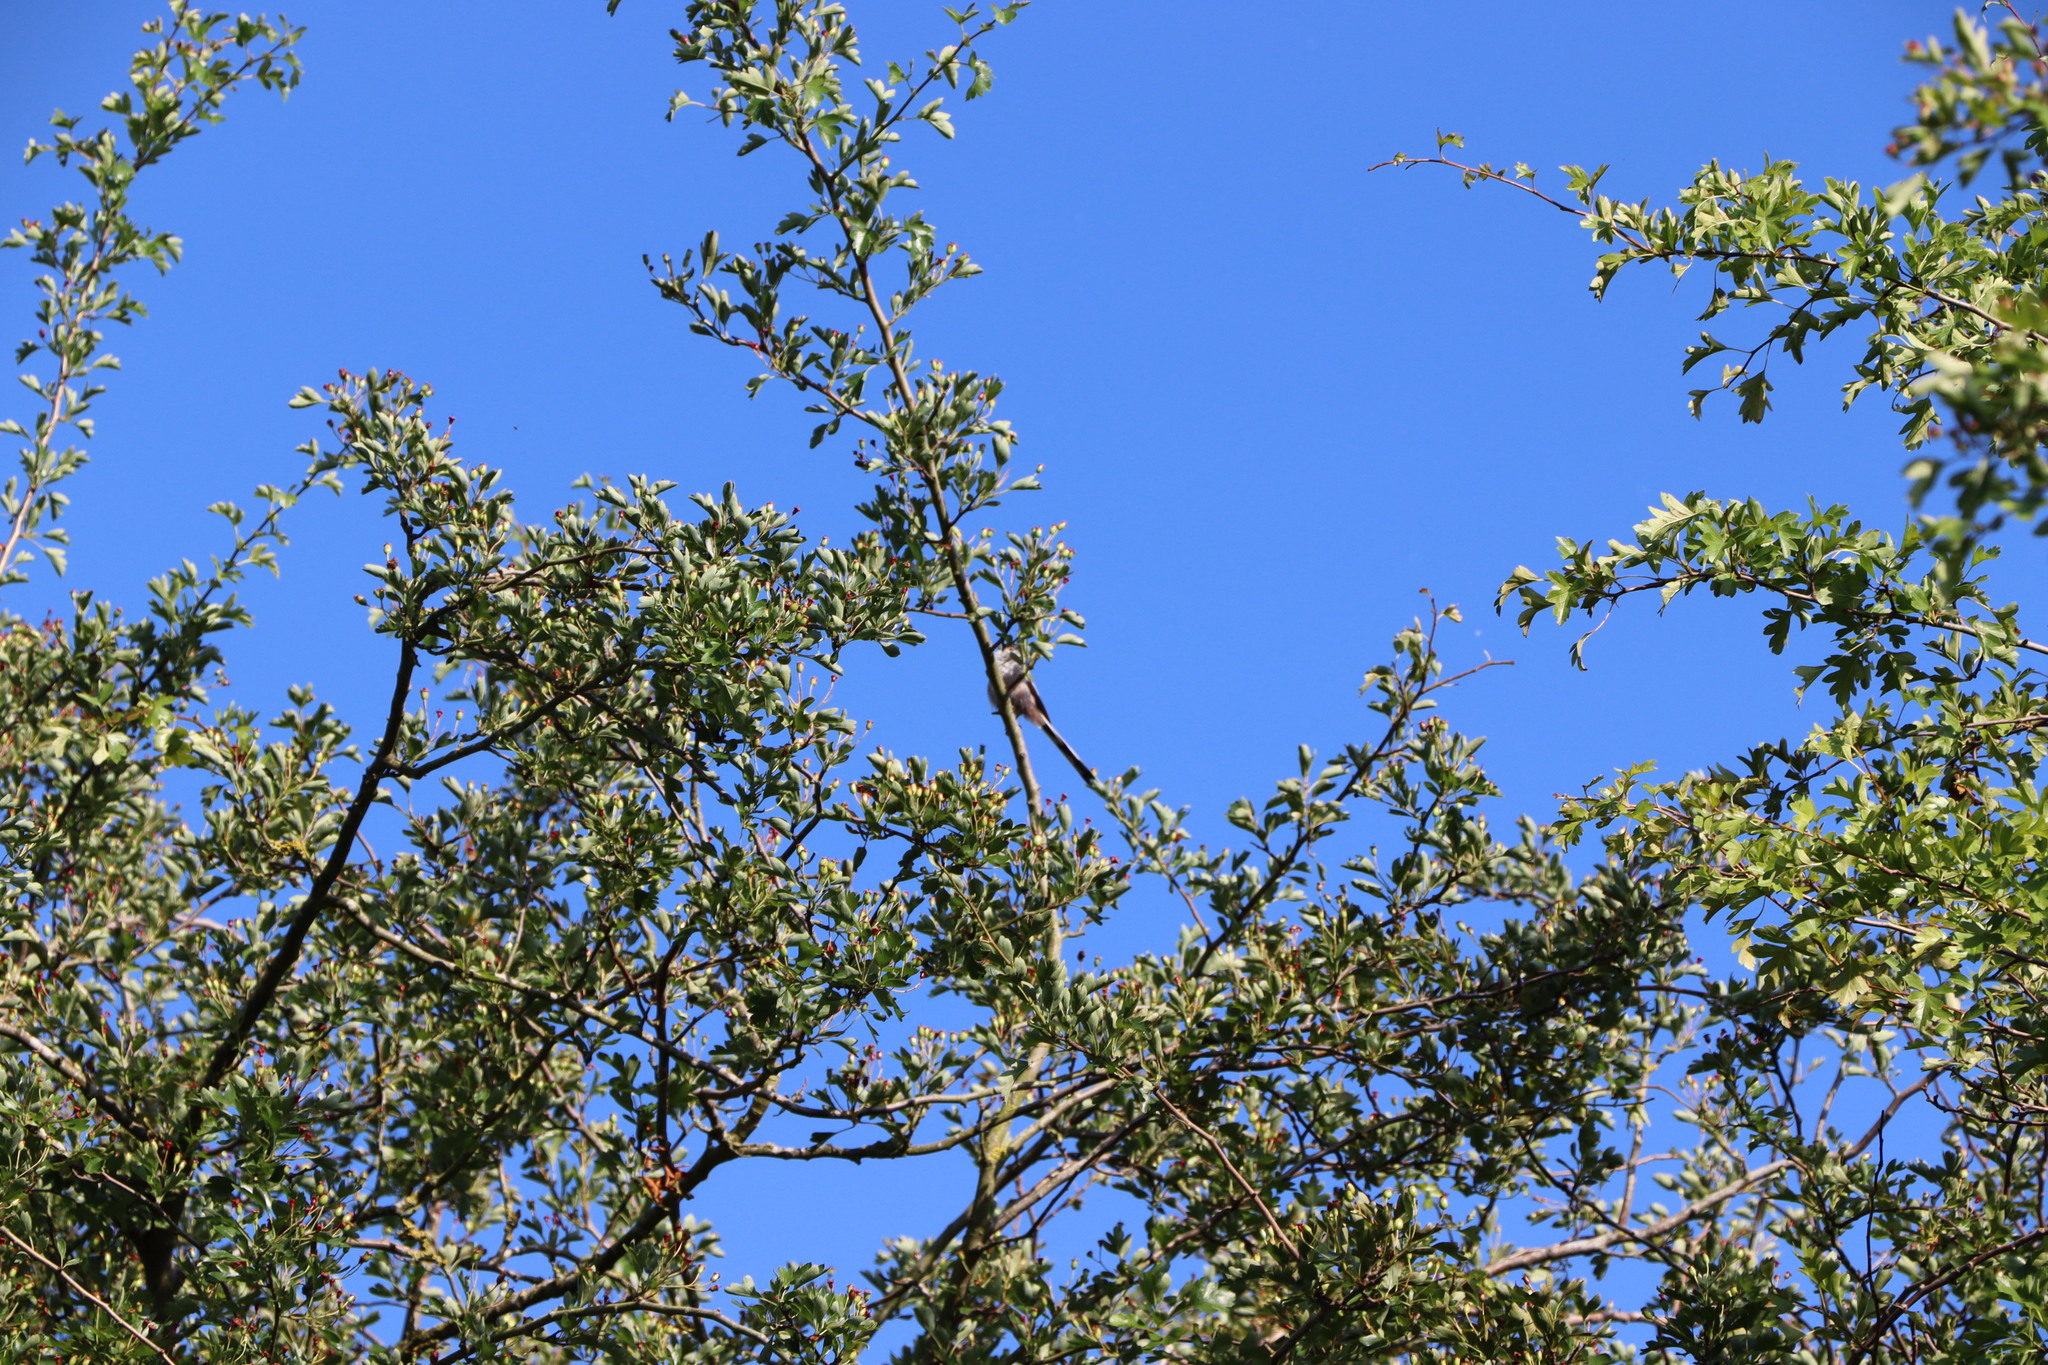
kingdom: Animalia
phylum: Chordata
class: Aves
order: Passeriformes
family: Aegithalidae
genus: Aegithalos
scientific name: Aegithalos caudatus
